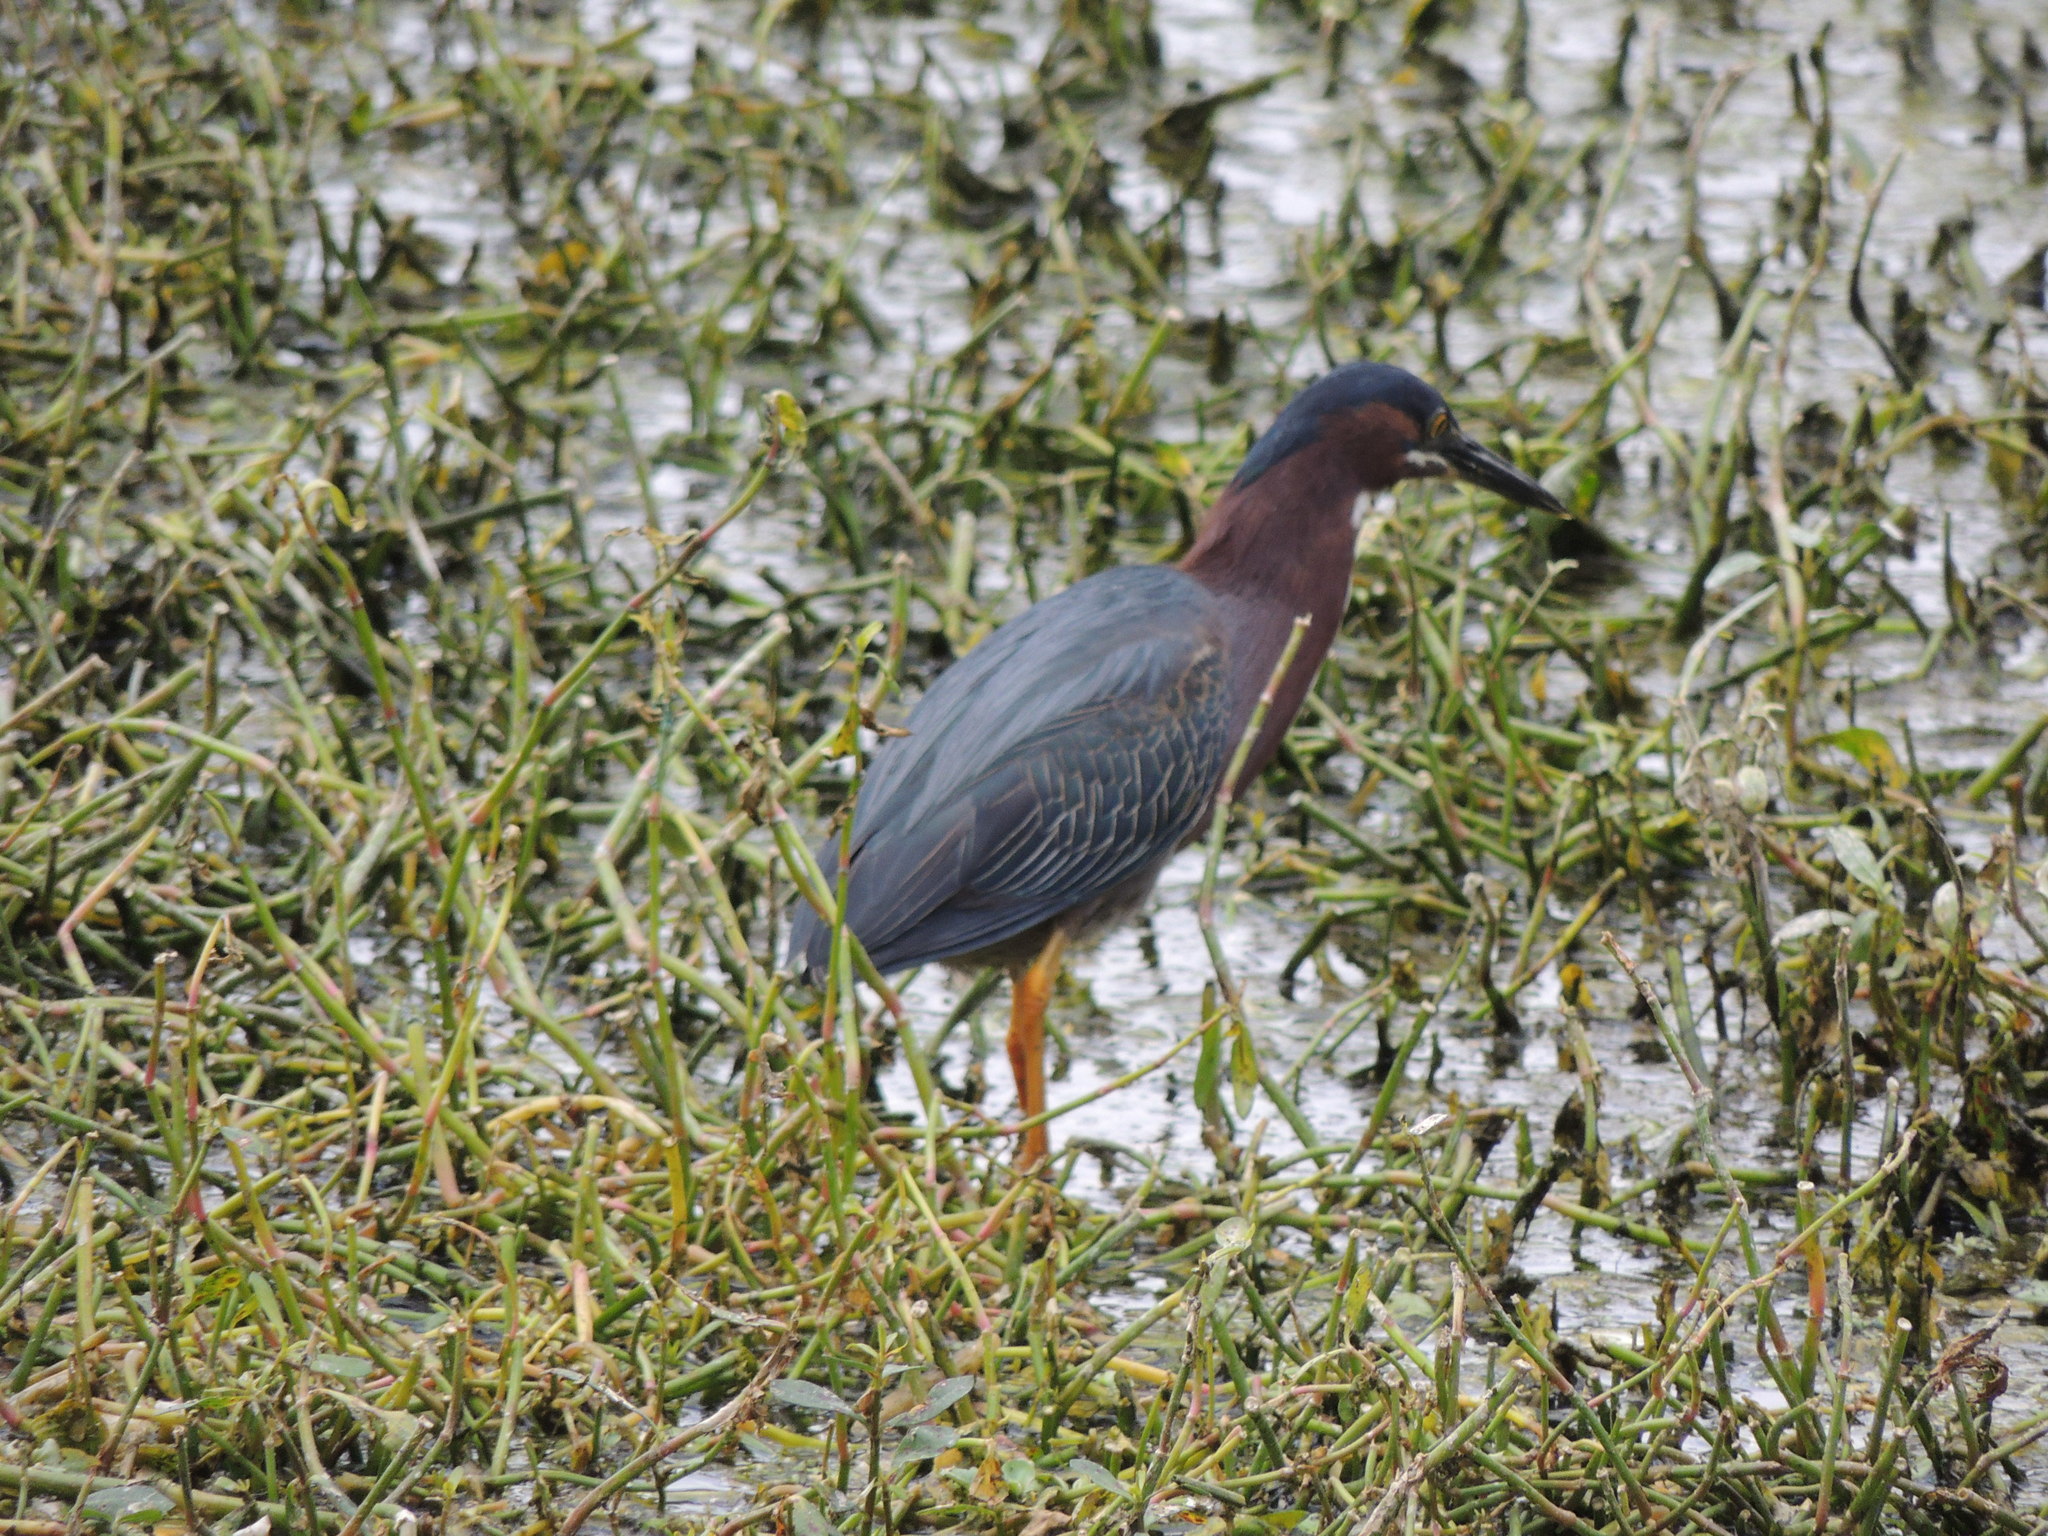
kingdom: Animalia
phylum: Chordata
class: Aves
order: Pelecaniformes
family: Ardeidae
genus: Butorides
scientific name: Butorides virescens
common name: Green heron
